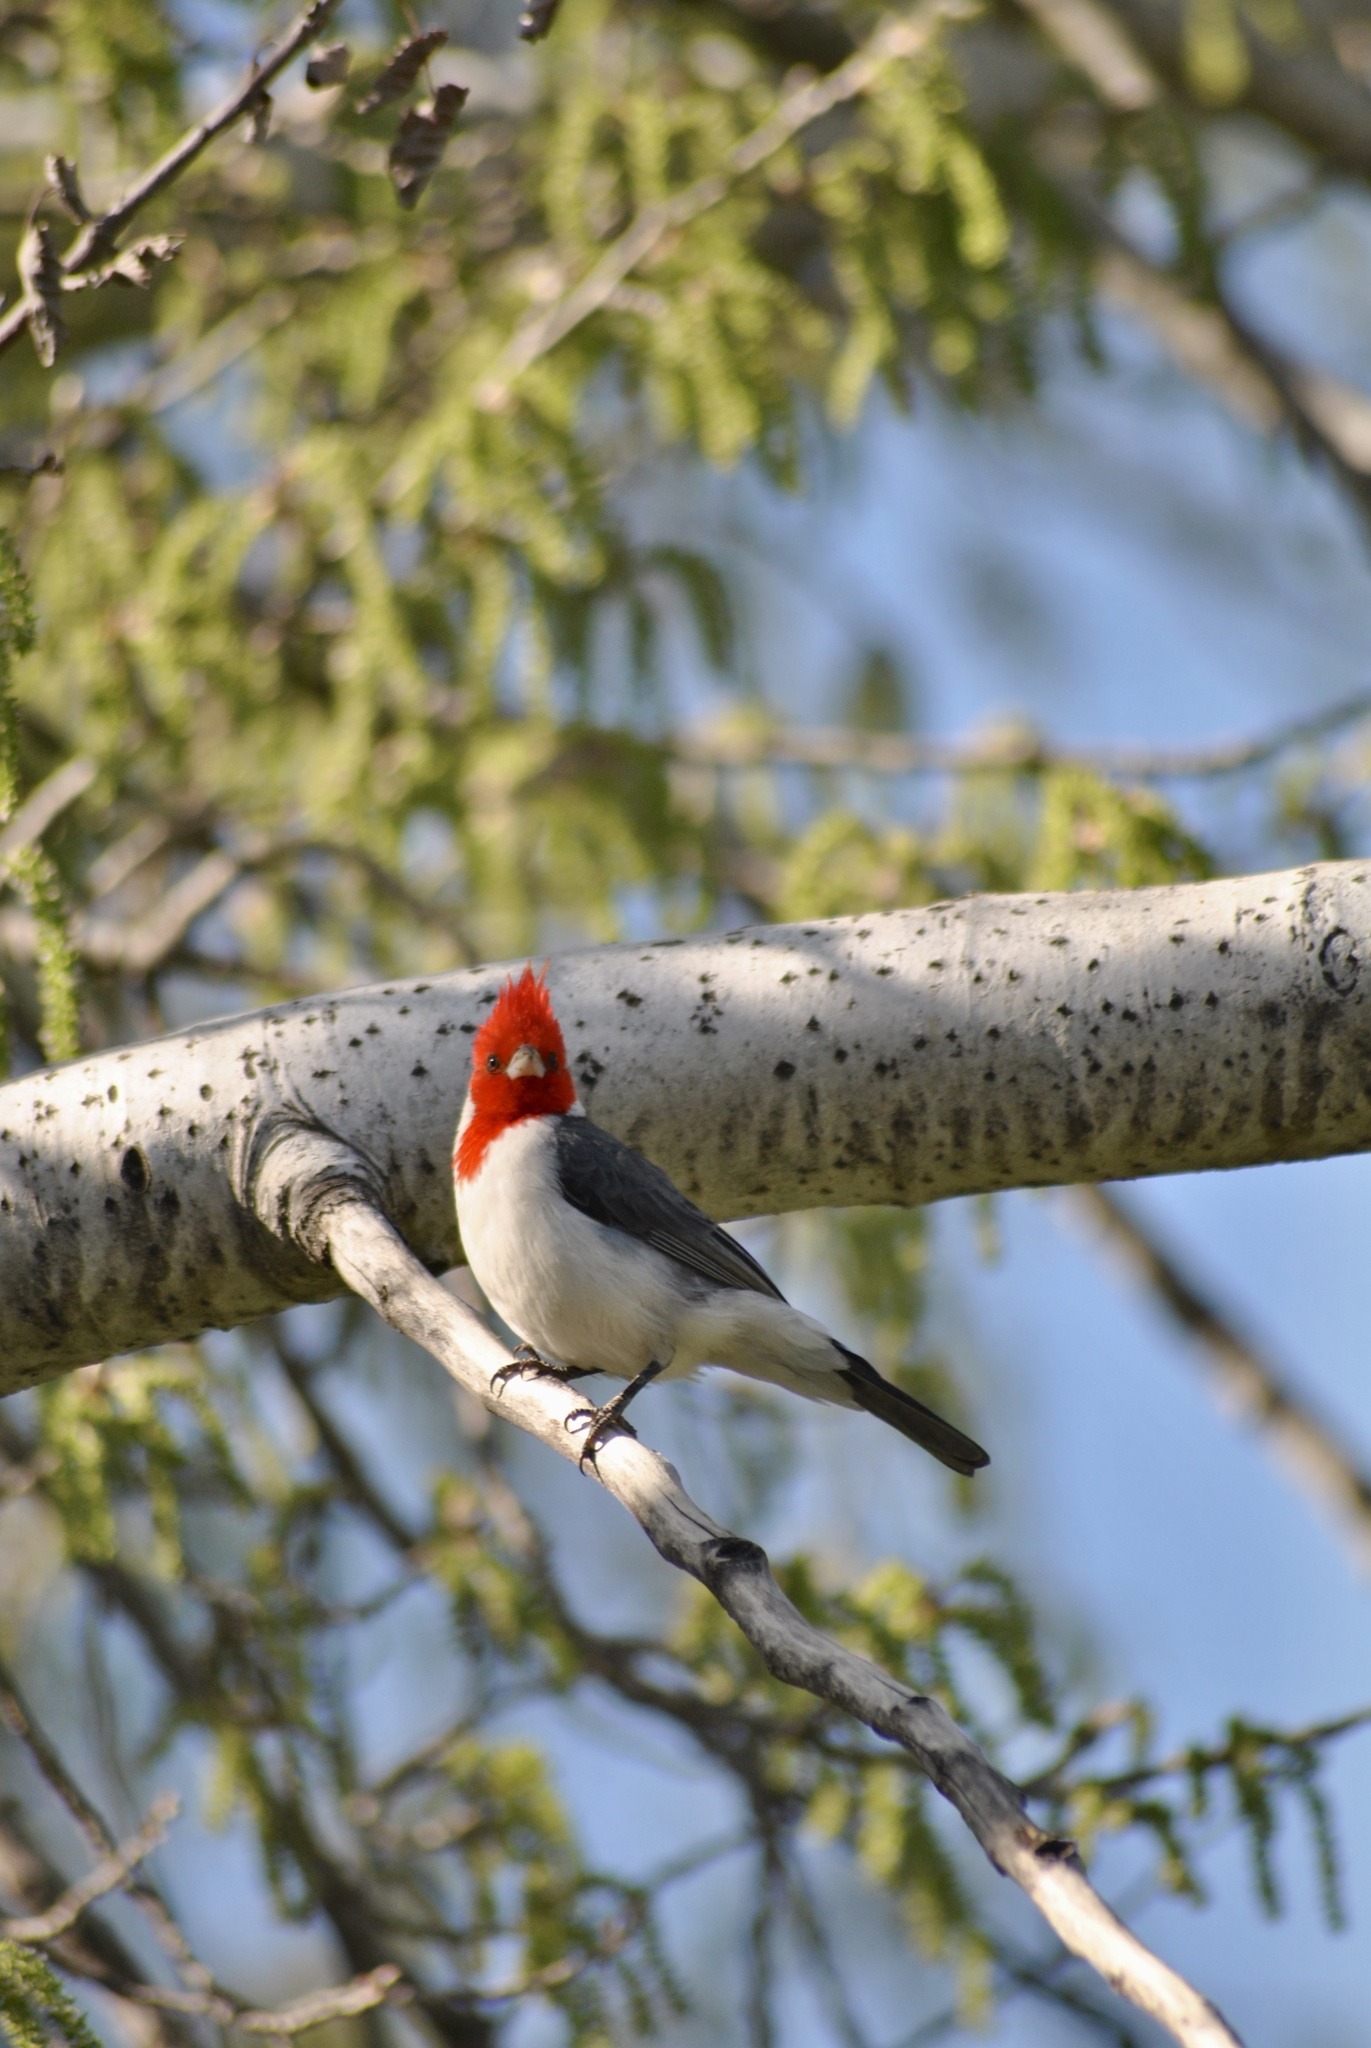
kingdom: Animalia
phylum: Chordata
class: Aves
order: Passeriformes
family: Thraupidae
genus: Paroaria
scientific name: Paroaria coronata
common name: Red-crested cardinal
